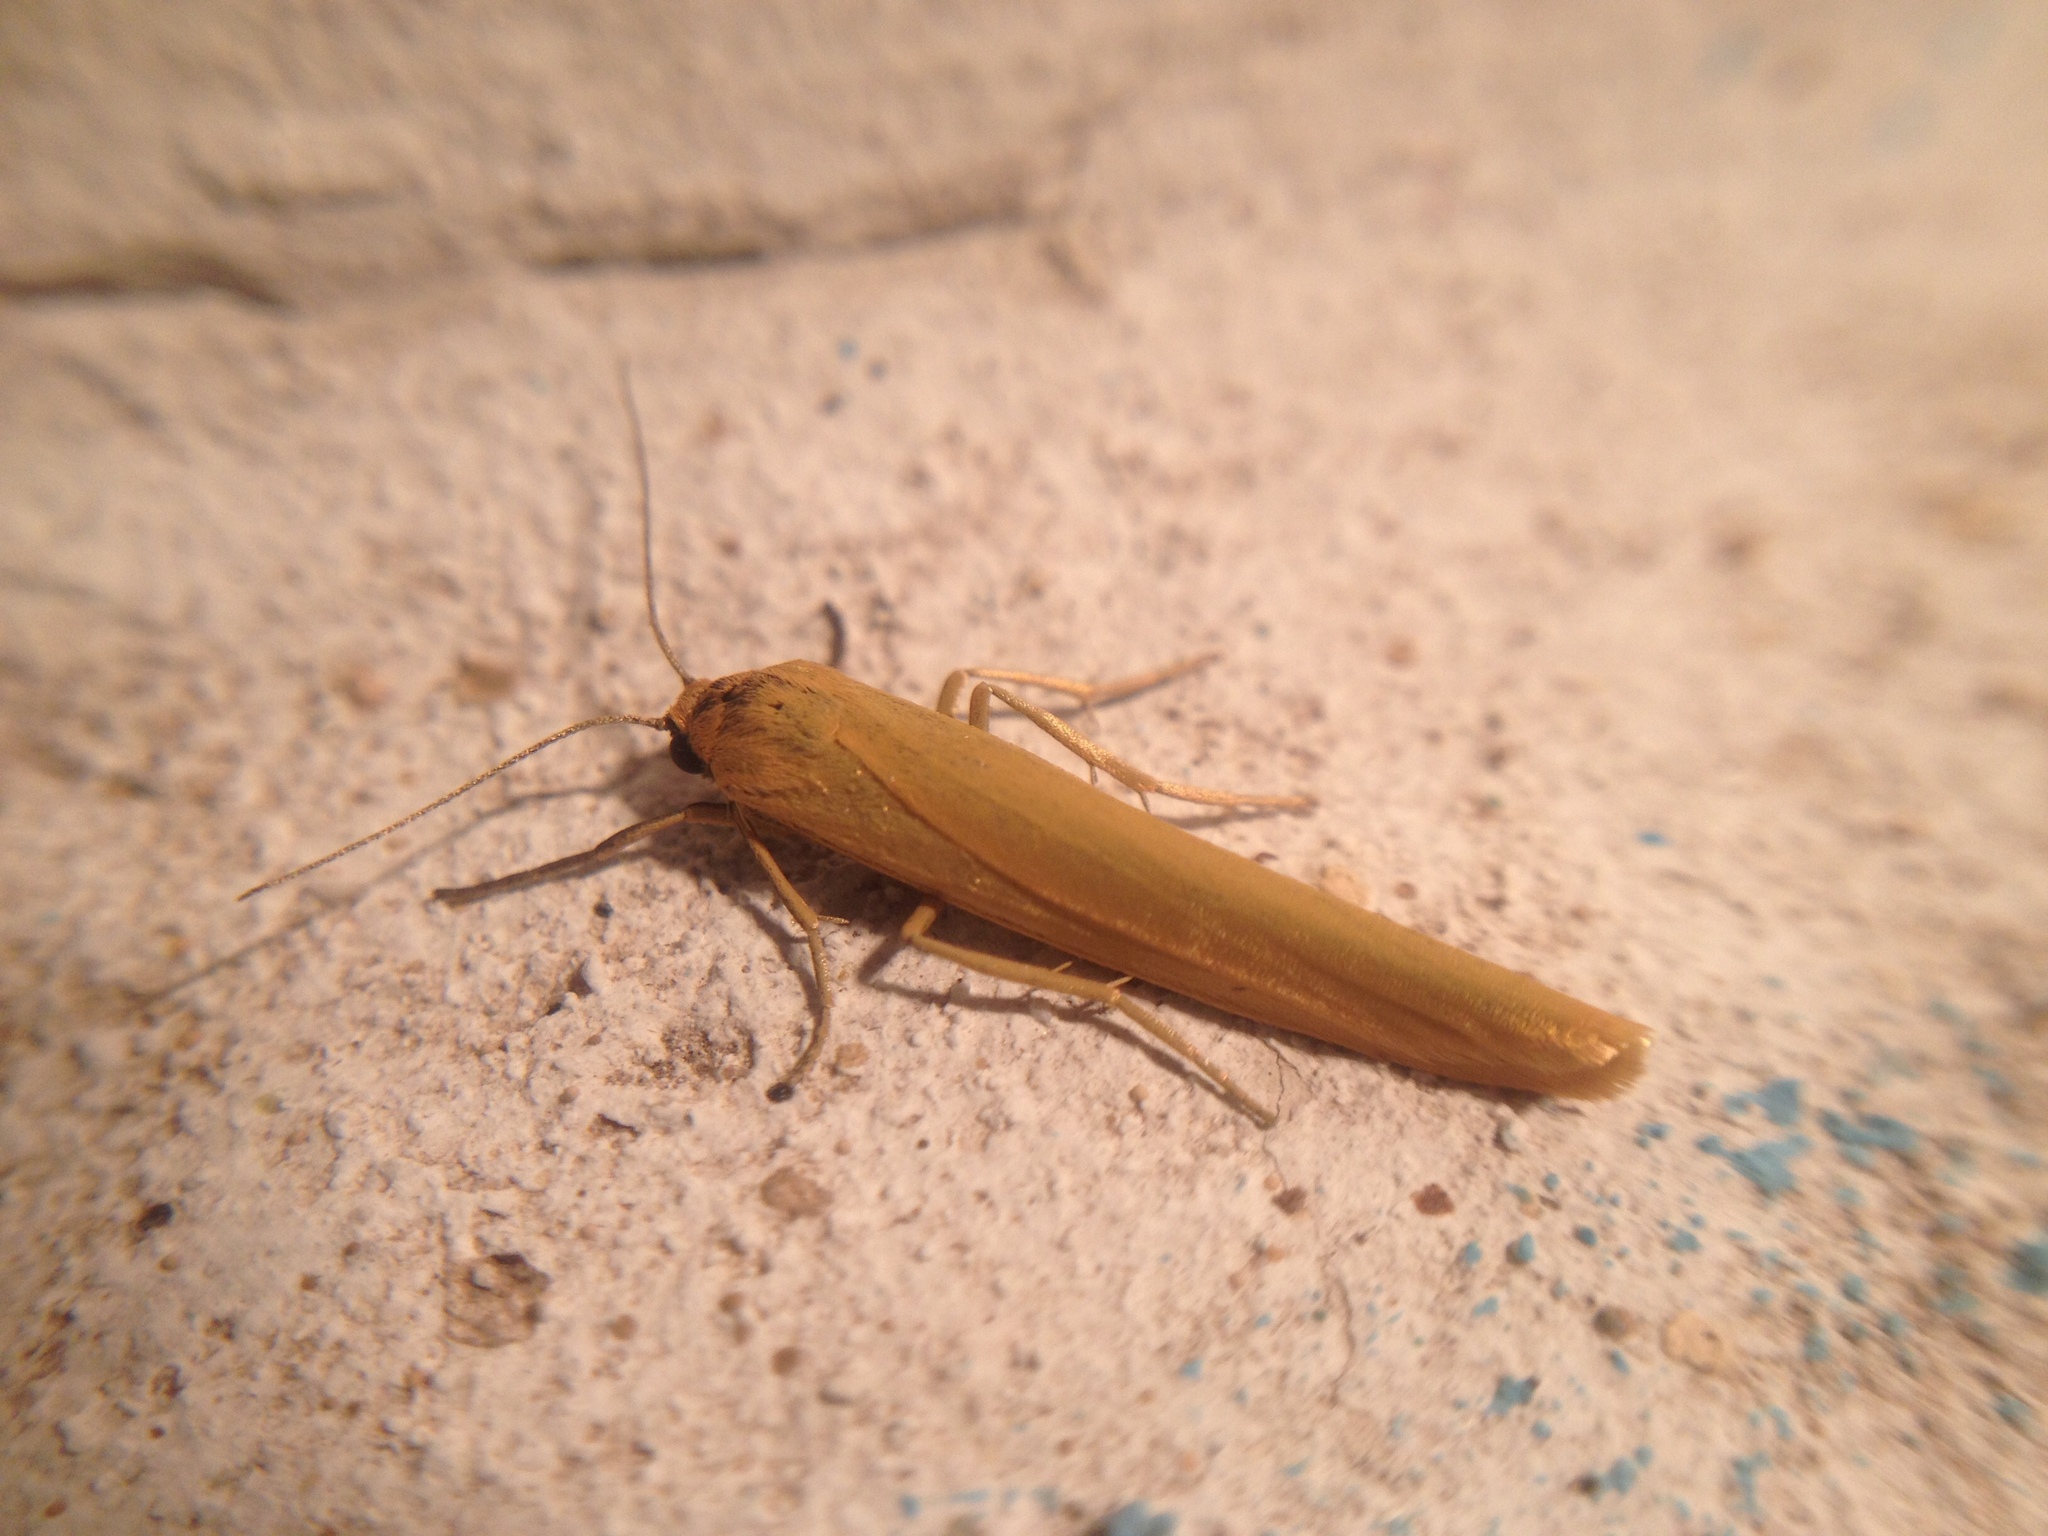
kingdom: Animalia
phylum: Arthropoda
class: Insecta
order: Lepidoptera
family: Erebidae
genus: Indalia
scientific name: Indalia lutarella
